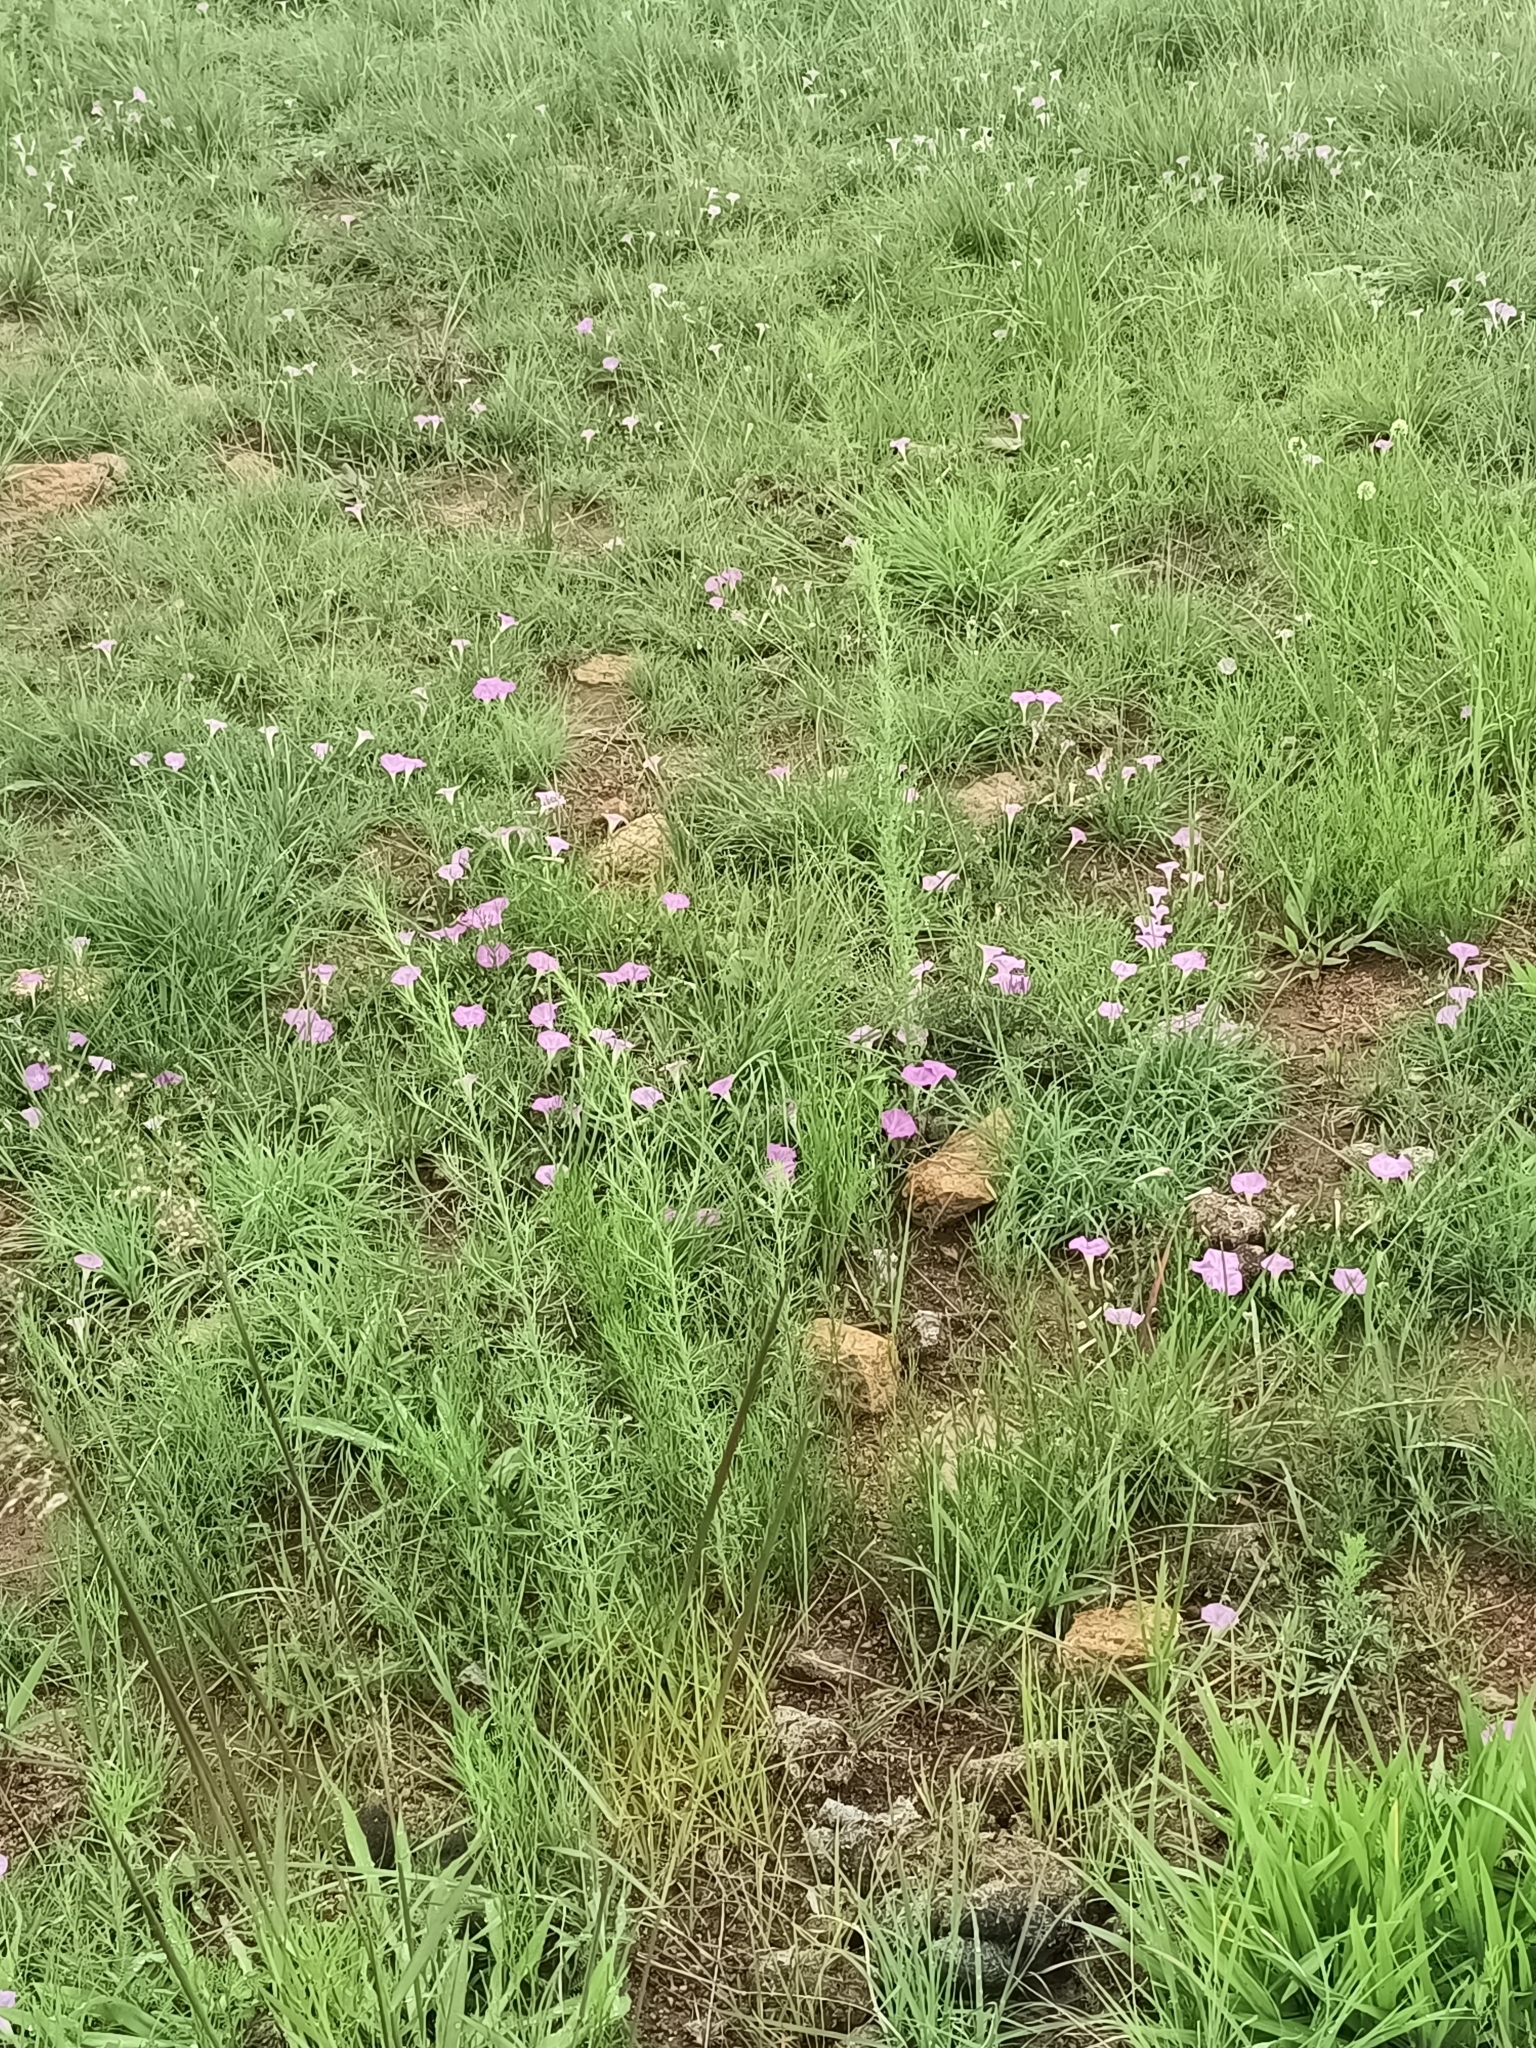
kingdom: Plantae
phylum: Tracheophyta
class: Magnoliopsida
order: Solanales
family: Convolvulaceae
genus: Ipomoea
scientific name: Ipomoea capillacea
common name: Purple morning-glory
